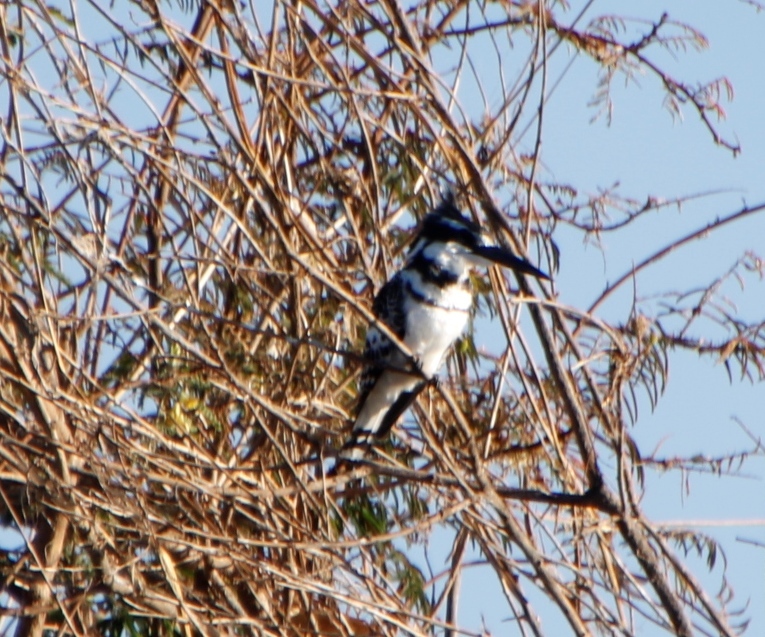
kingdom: Animalia
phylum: Chordata
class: Aves
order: Coraciiformes
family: Alcedinidae
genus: Ceryle
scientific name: Ceryle rudis
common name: Pied kingfisher
